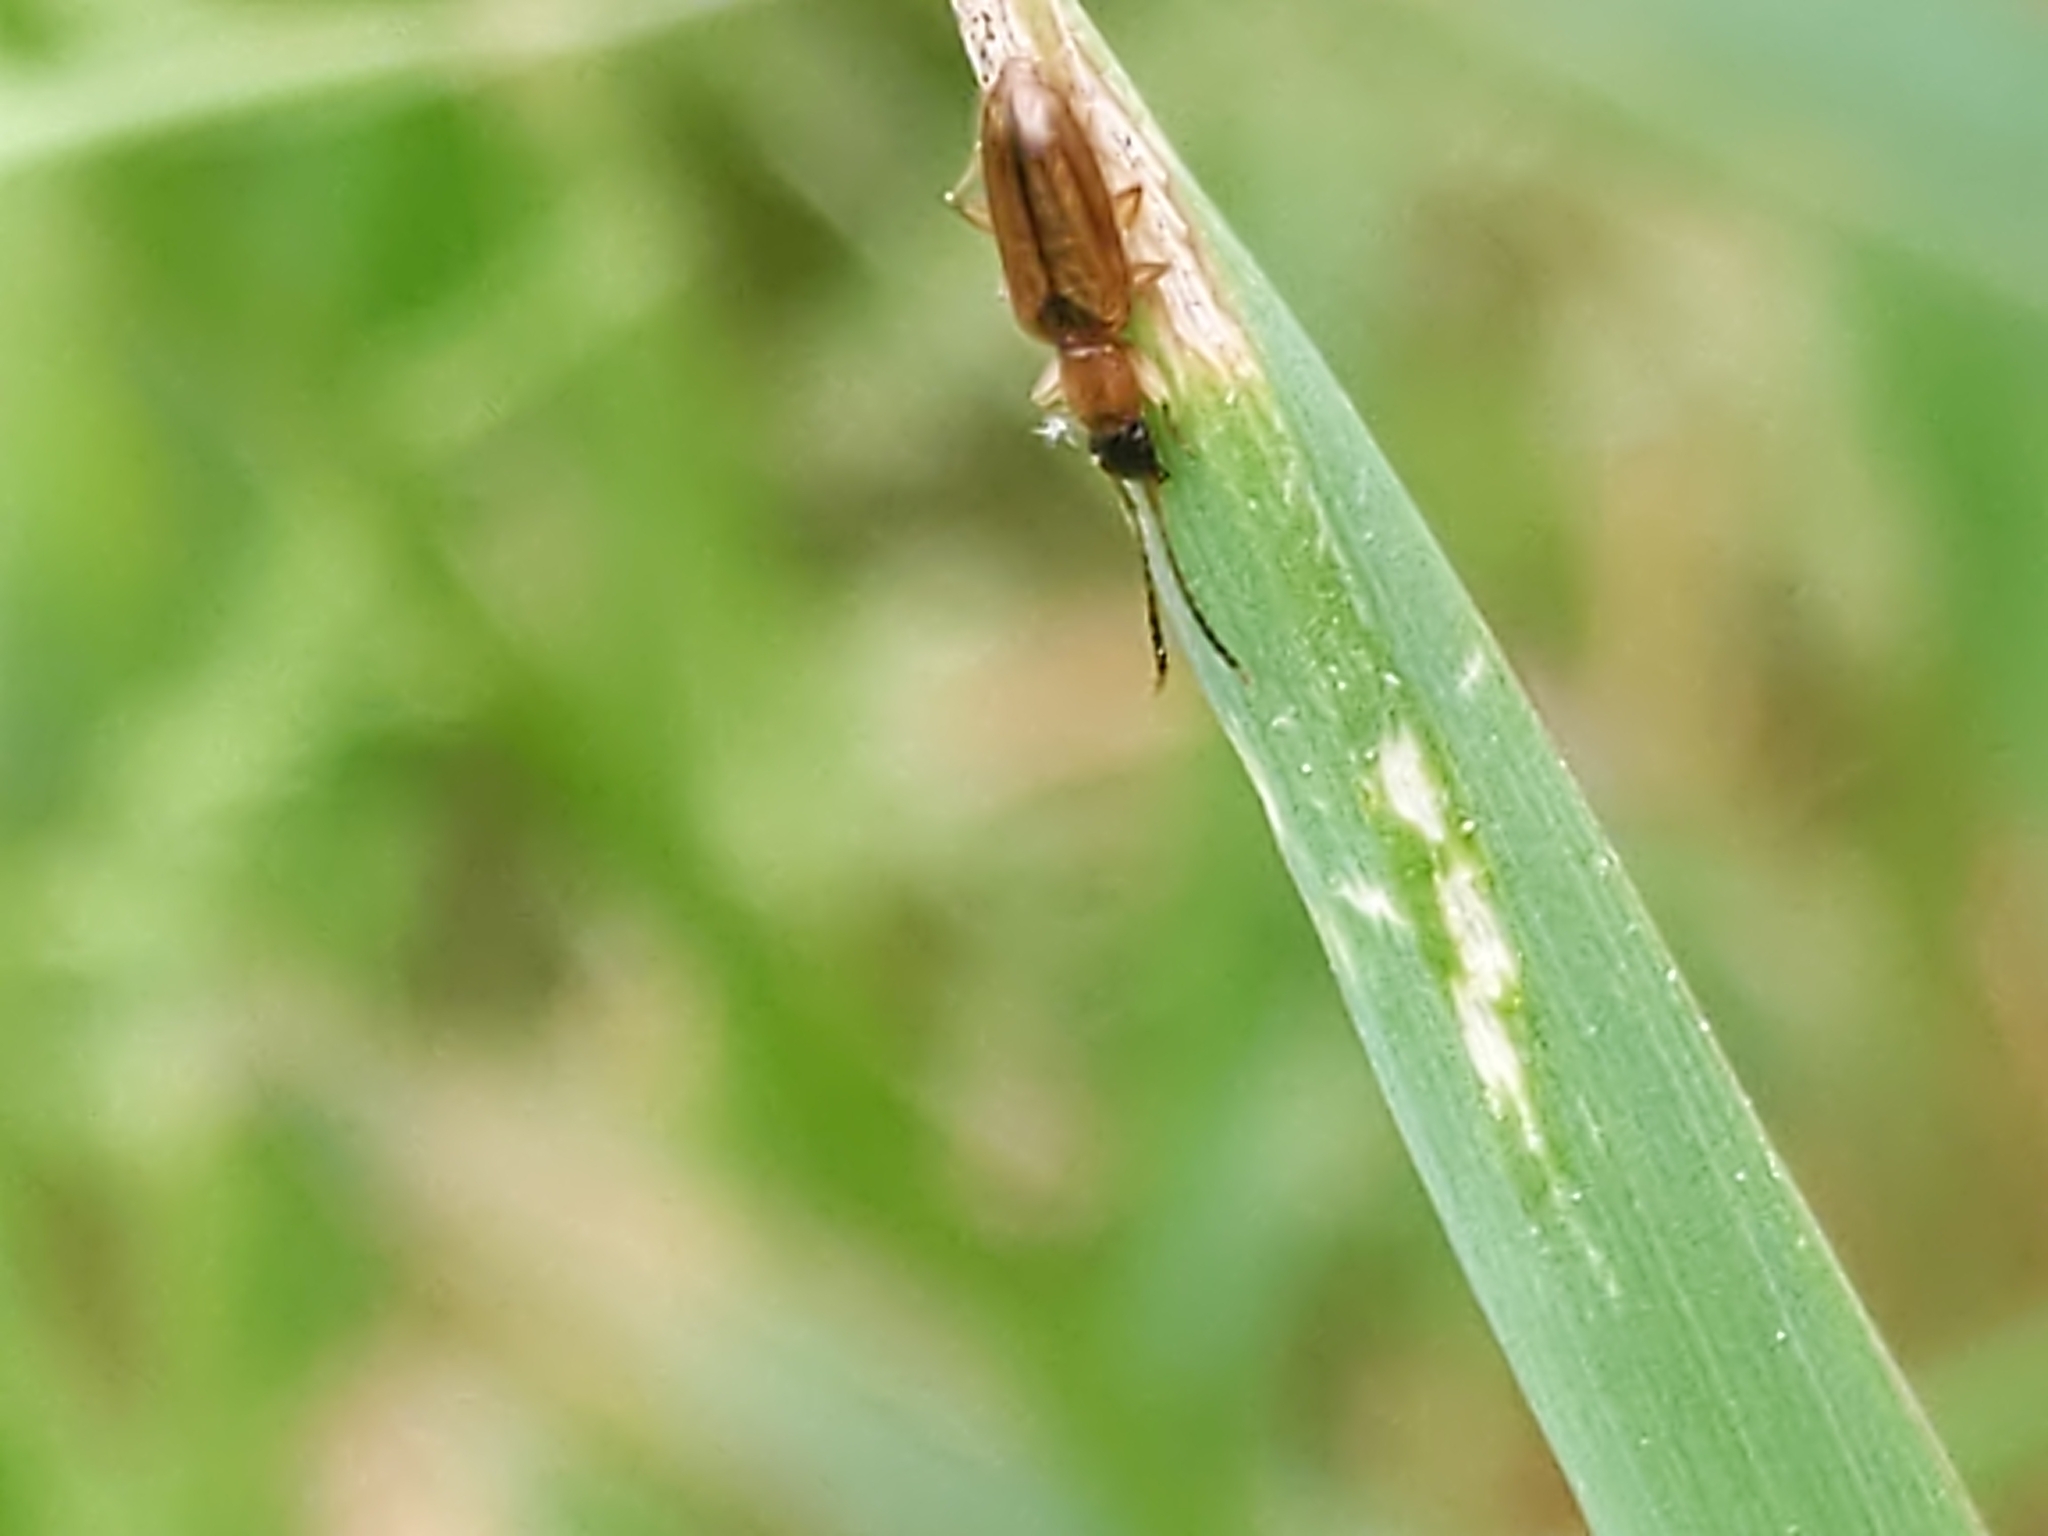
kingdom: Animalia
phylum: Arthropoda
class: Insecta
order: Coleoptera
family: Silvanidae
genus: Telephanus
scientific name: Telephanus velox
